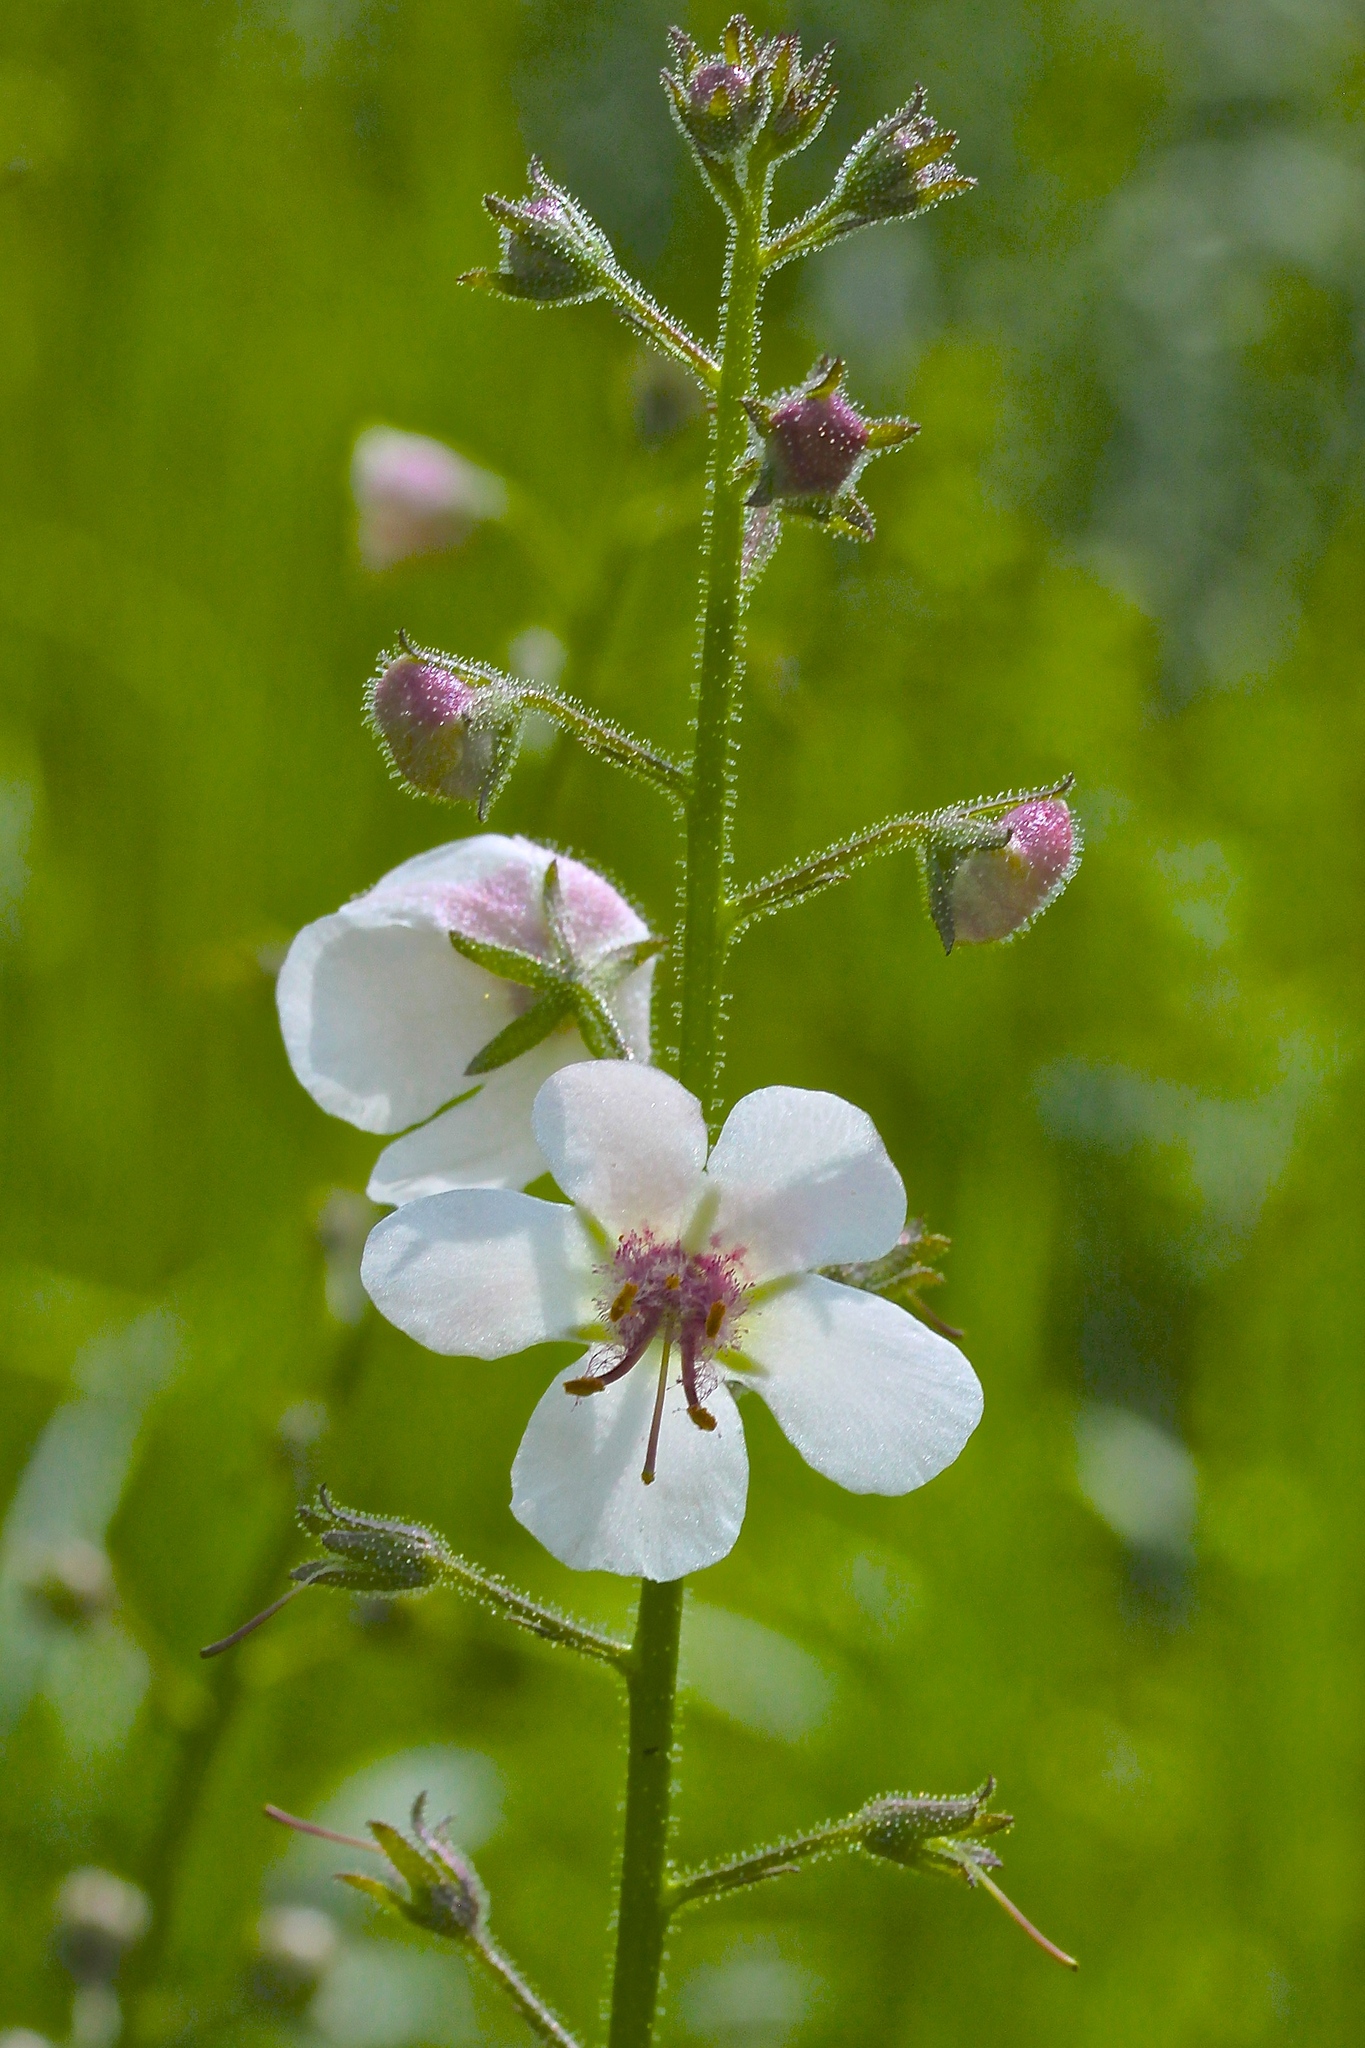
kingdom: Plantae
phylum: Tracheophyta
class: Magnoliopsida
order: Lamiales
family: Scrophulariaceae
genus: Verbascum
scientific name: Verbascum blattaria
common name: Moth mullein
